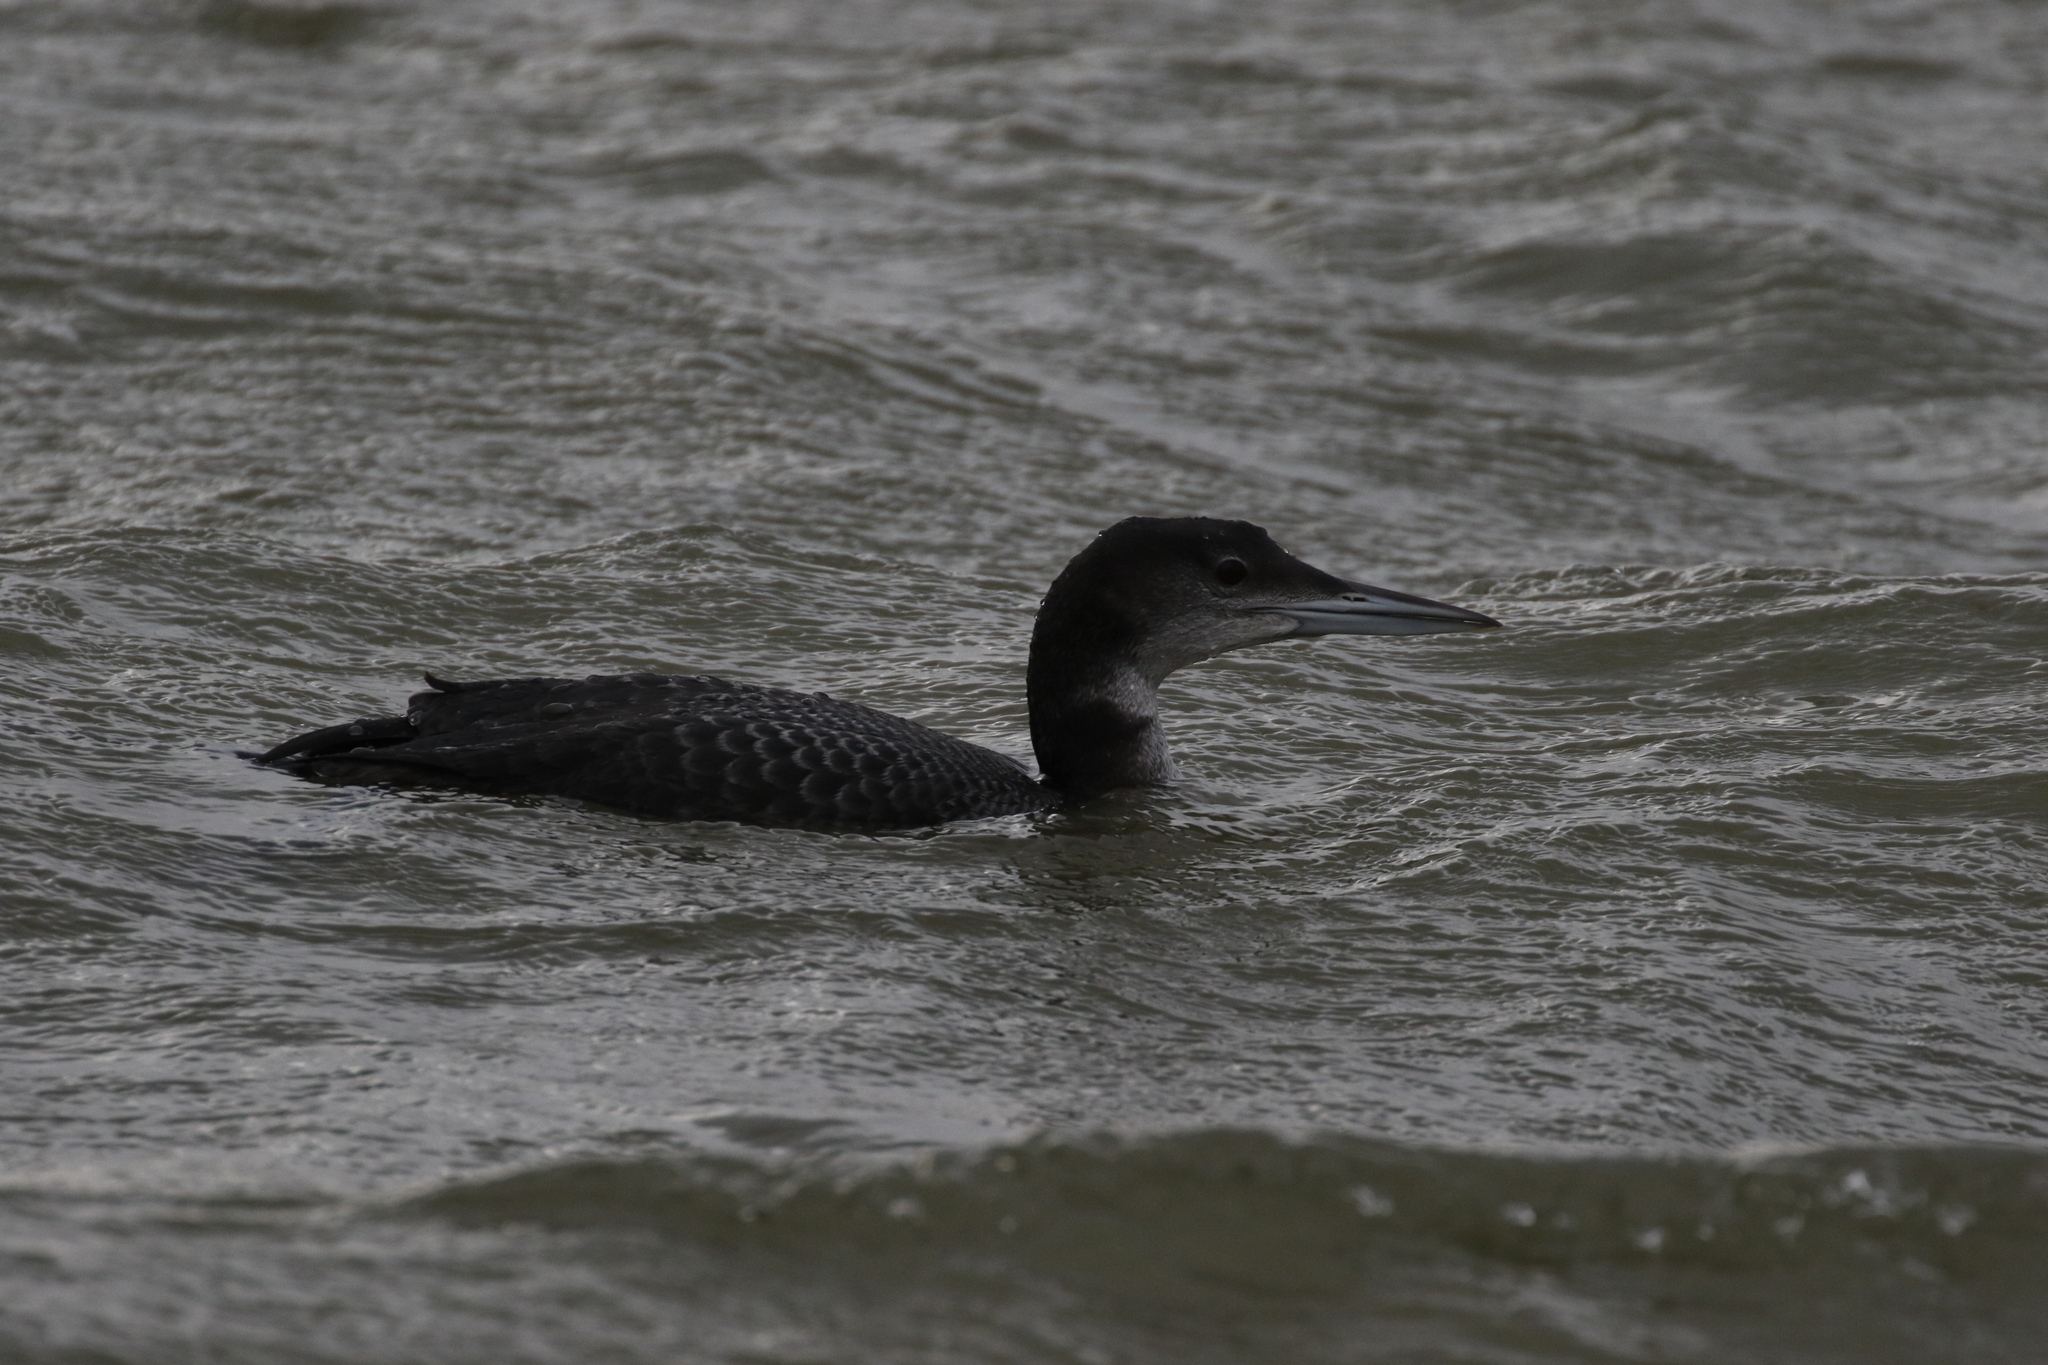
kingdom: Animalia
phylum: Chordata
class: Aves
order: Gaviiformes
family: Gaviidae
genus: Gavia
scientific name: Gavia immer
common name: Common loon
